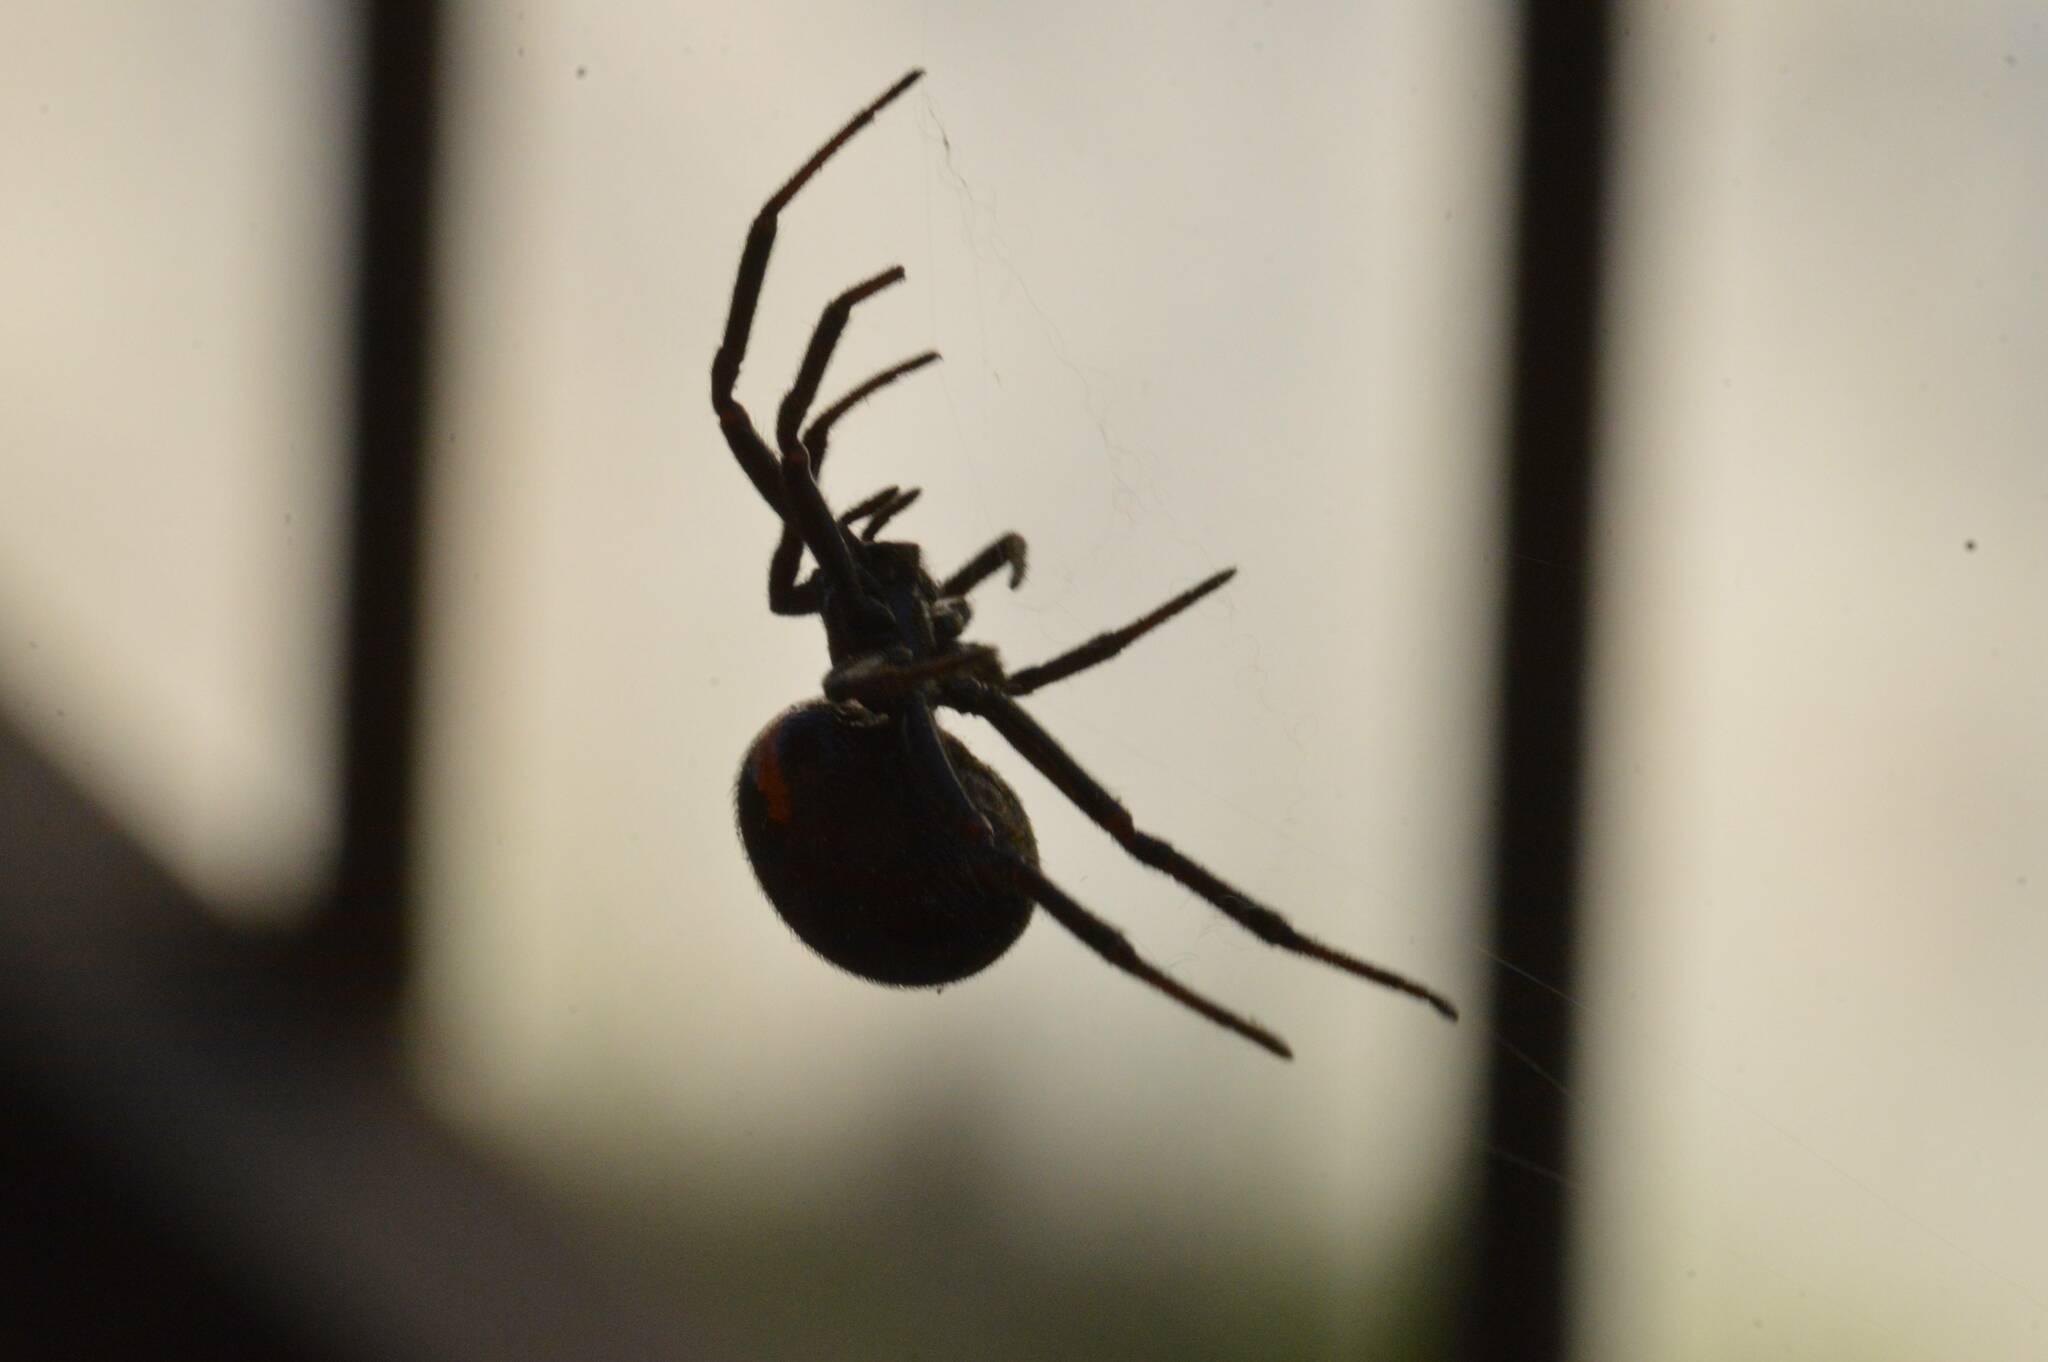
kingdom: Animalia
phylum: Arthropoda
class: Arachnida
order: Araneae
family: Theridiidae
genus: Steatoda
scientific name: Steatoda paykulliana
